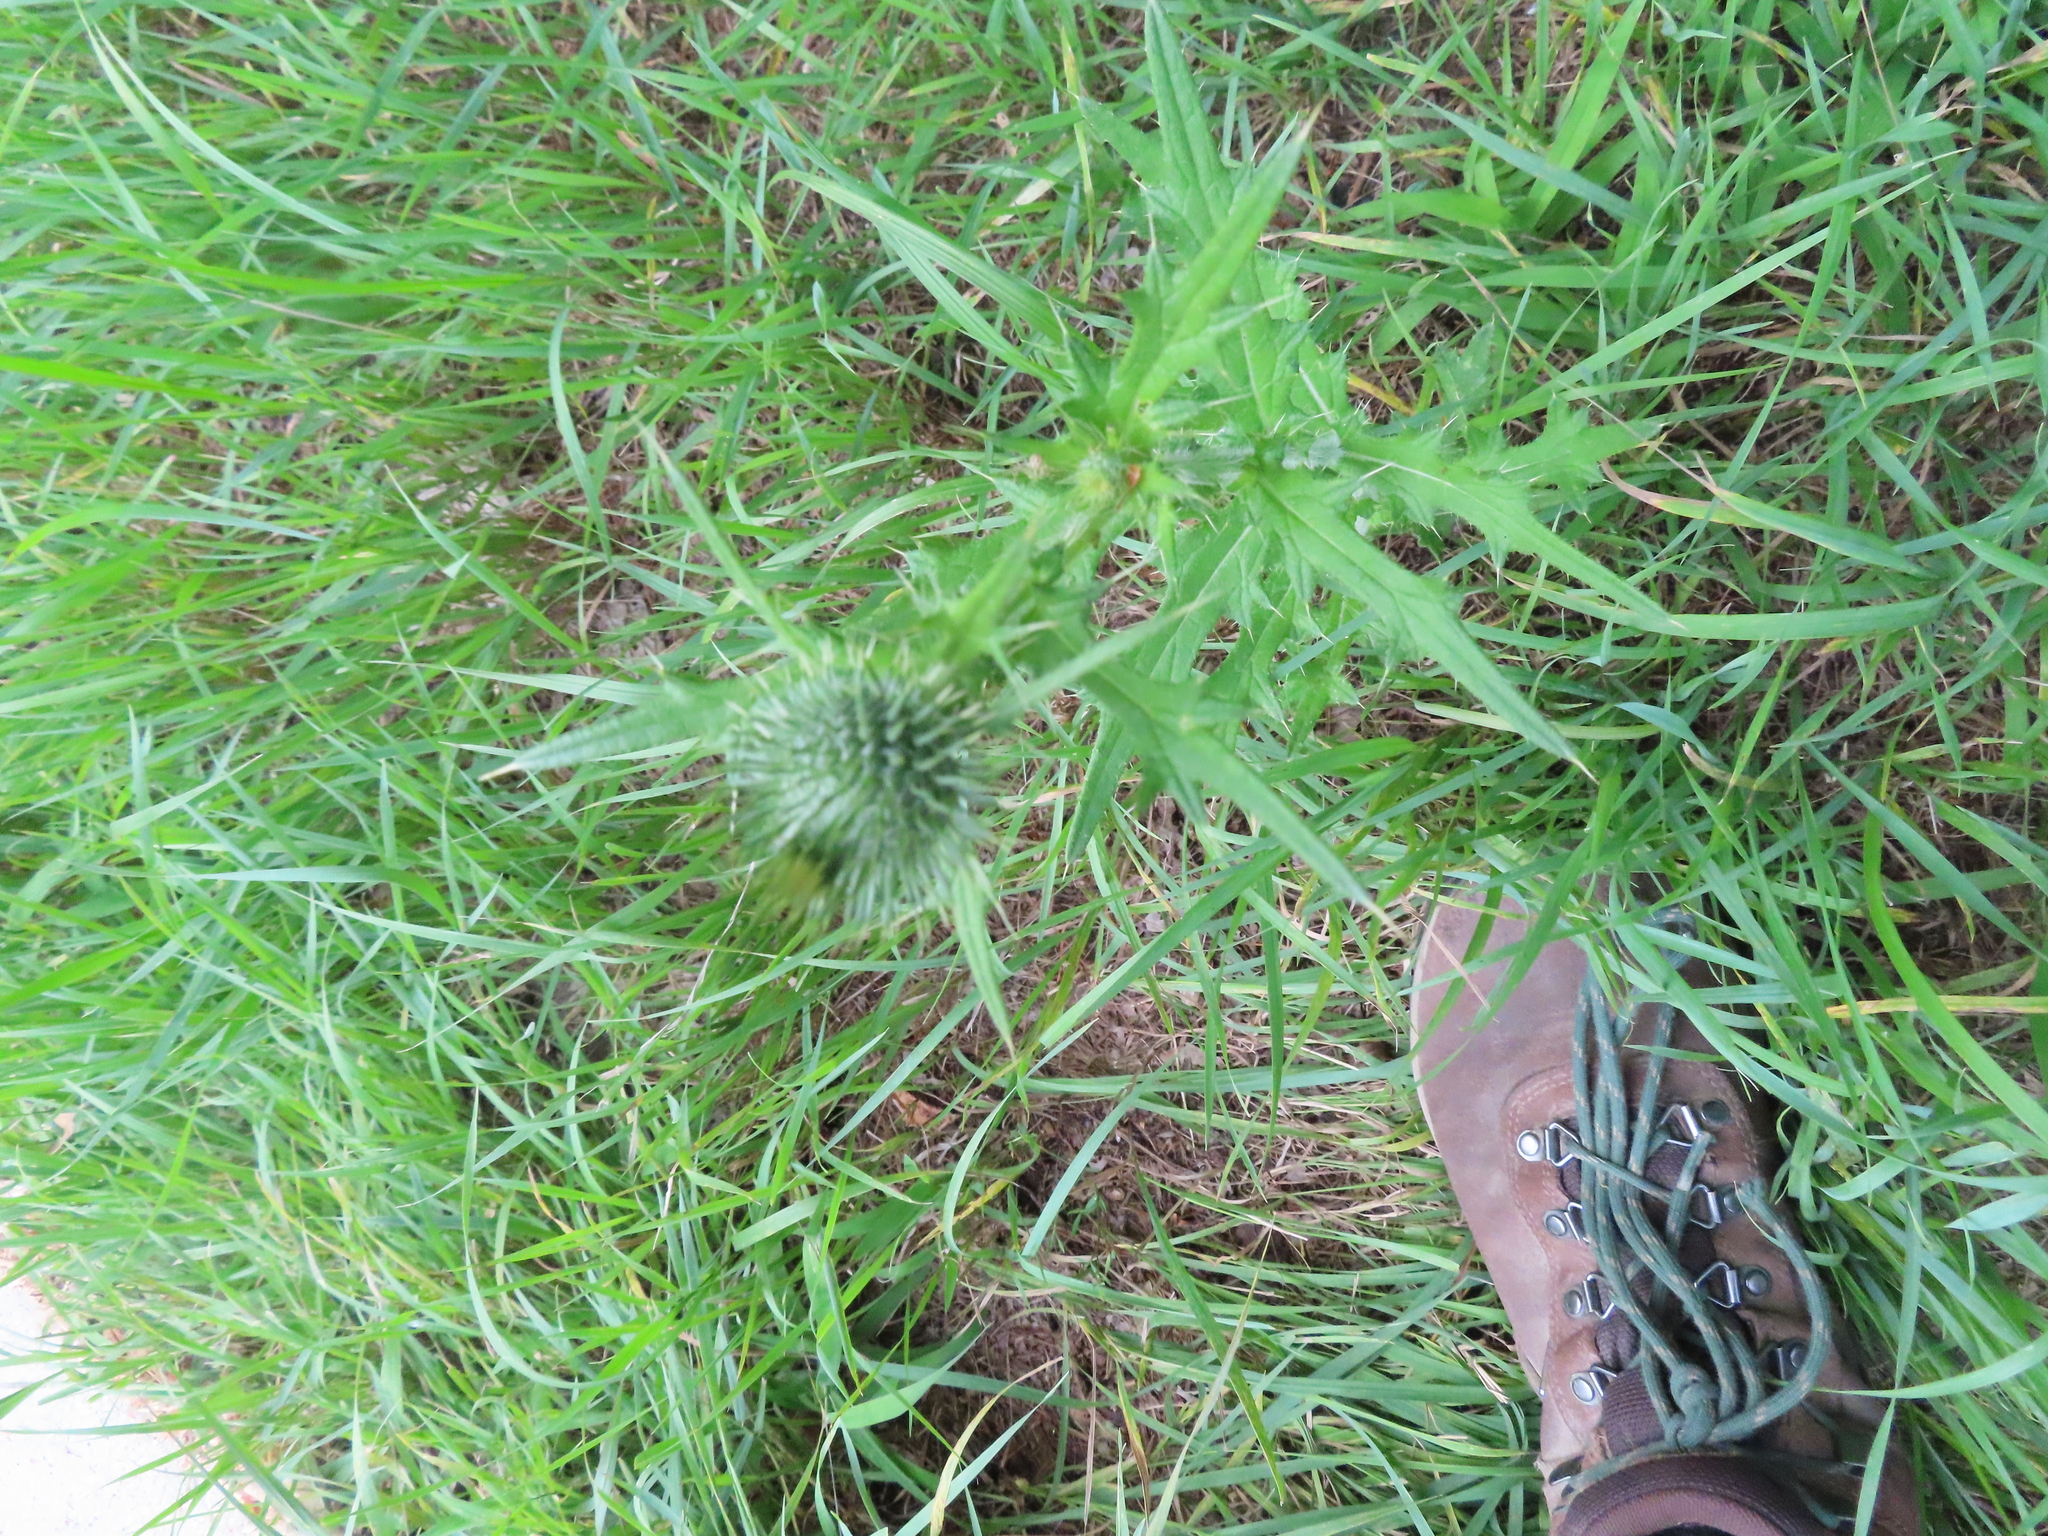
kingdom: Plantae
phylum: Tracheophyta
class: Magnoliopsida
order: Asterales
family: Asteraceae
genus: Cirsium
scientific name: Cirsium vulgare
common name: Bull thistle
